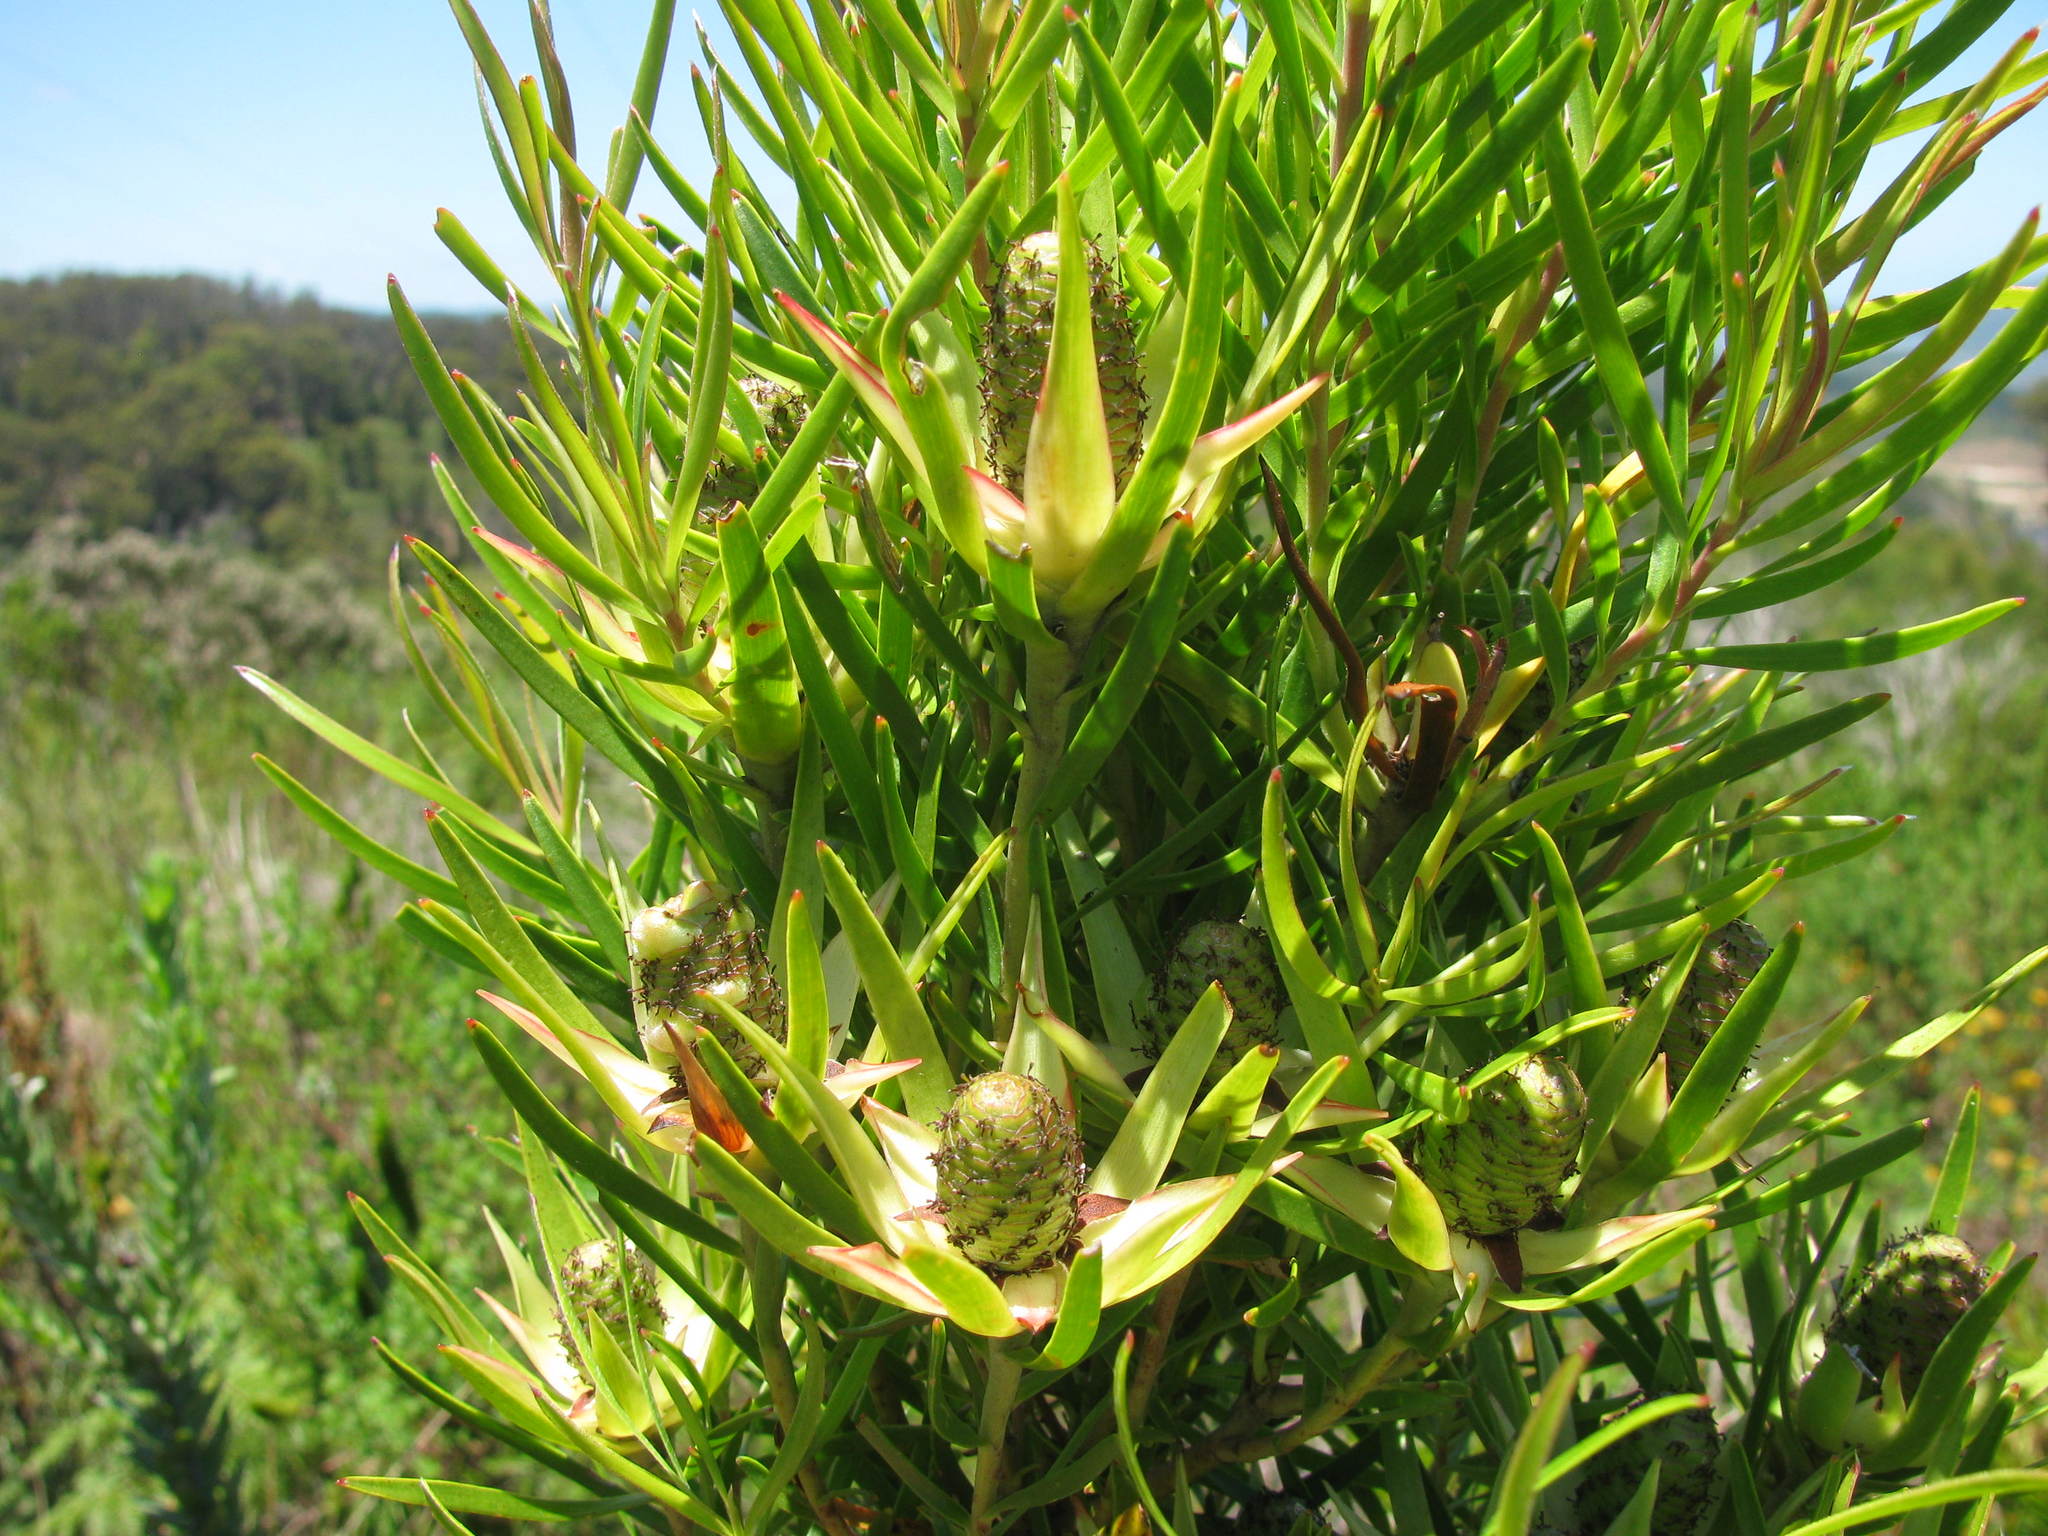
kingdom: Plantae
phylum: Tracheophyta
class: Magnoliopsida
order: Proteales
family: Proteaceae
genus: Leucadendron
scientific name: Leucadendron spissifolium
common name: Spear-leaf conebush
